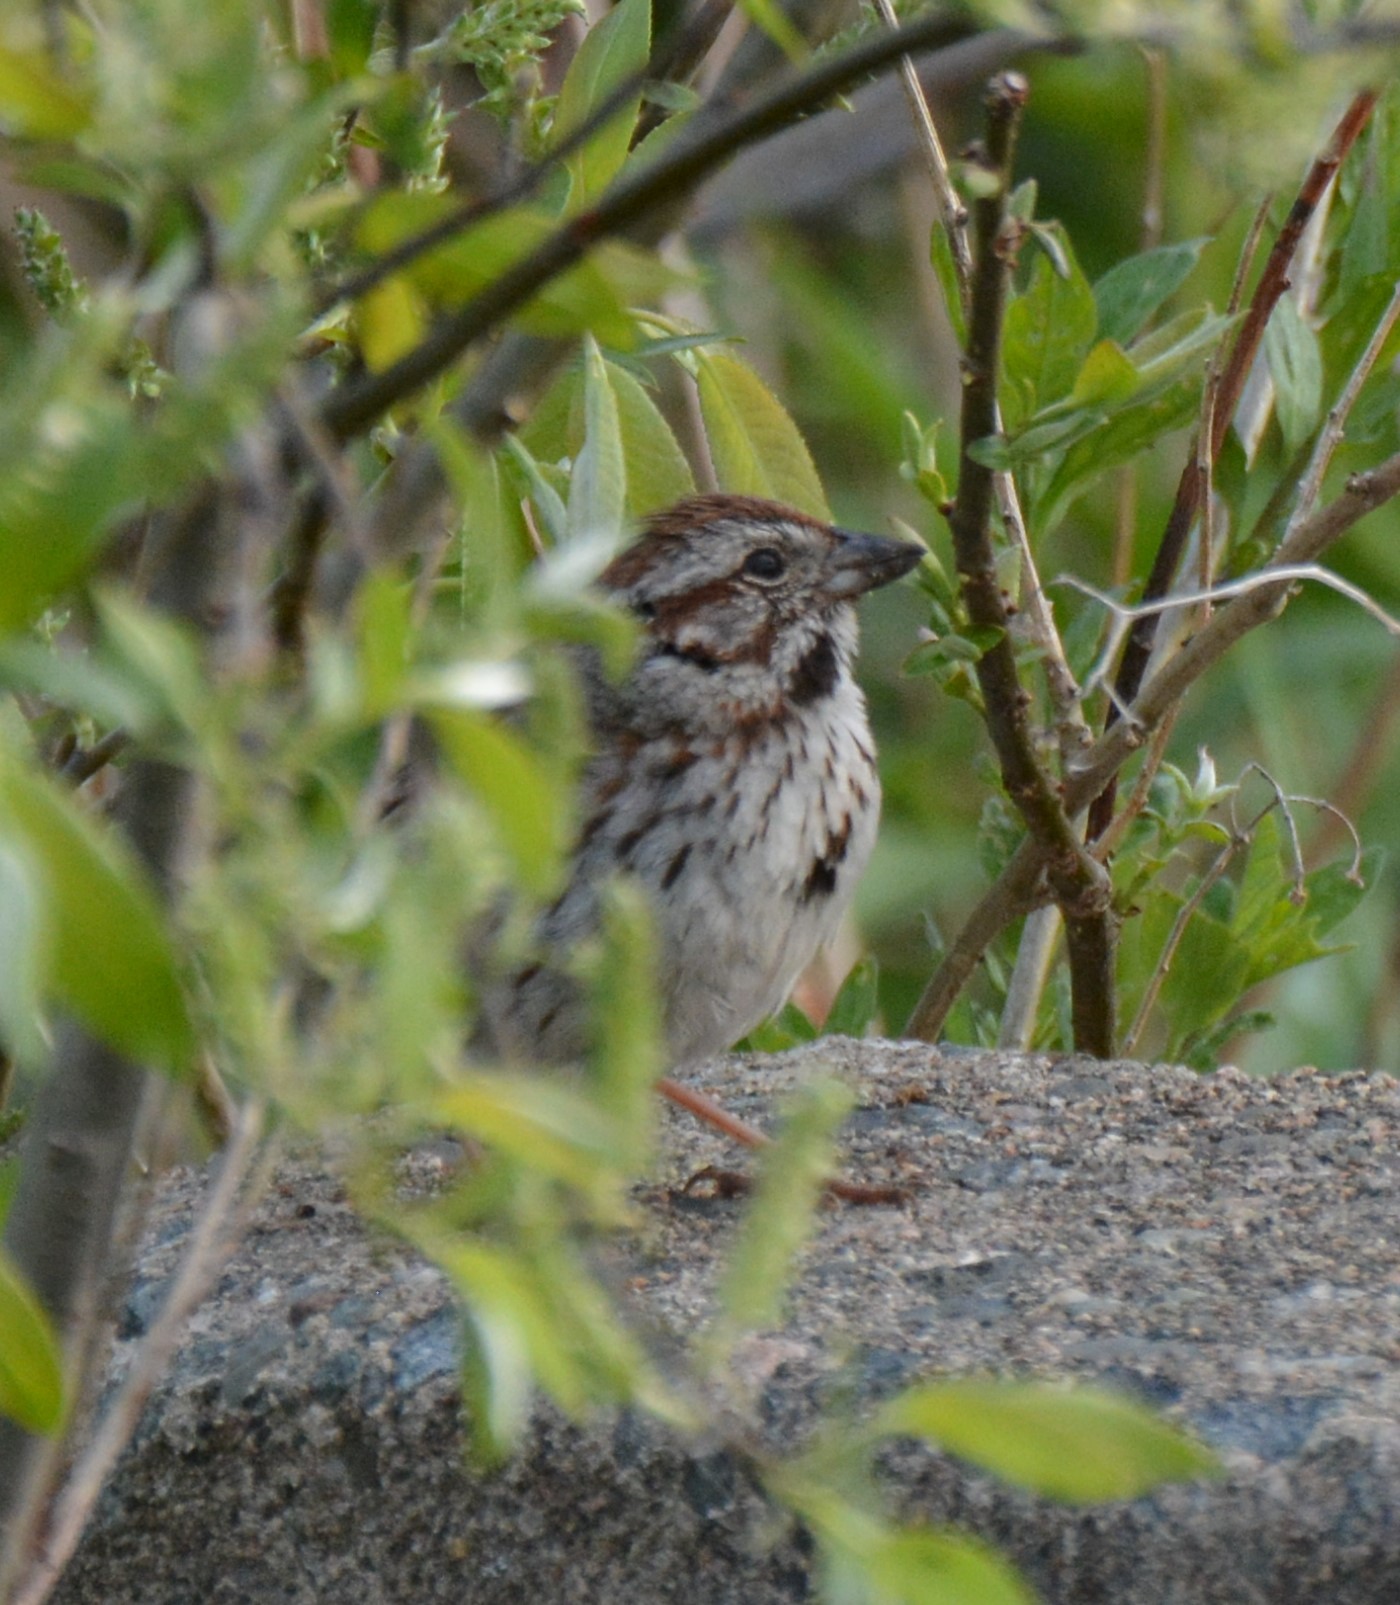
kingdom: Animalia
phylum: Chordata
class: Aves
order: Passeriformes
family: Passerellidae
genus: Melospiza
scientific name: Melospiza melodia
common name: Song sparrow
